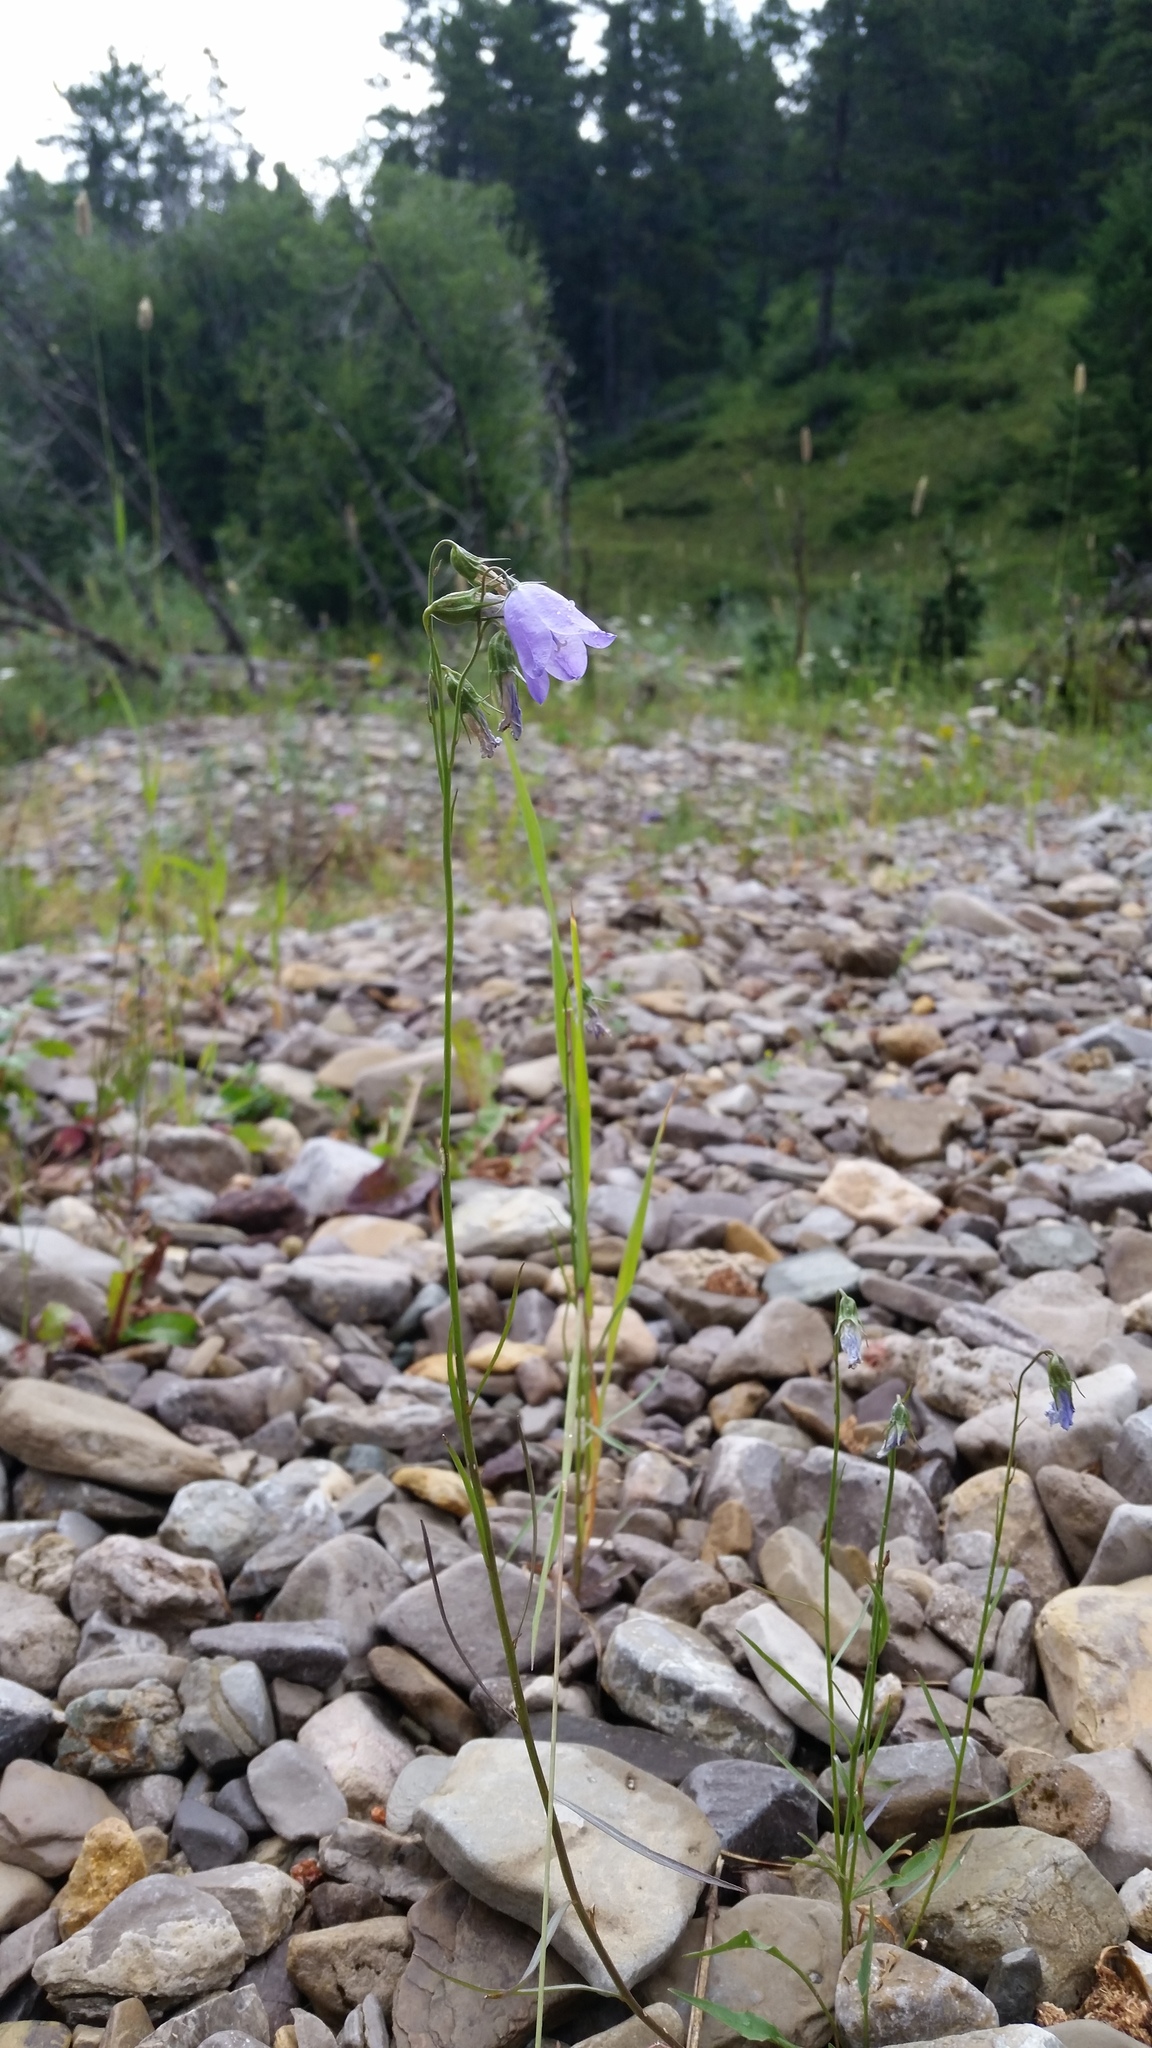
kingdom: Plantae
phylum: Tracheophyta
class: Magnoliopsida
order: Asterales
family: Campanulaceae
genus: Campanula
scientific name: Campanula petiolata
